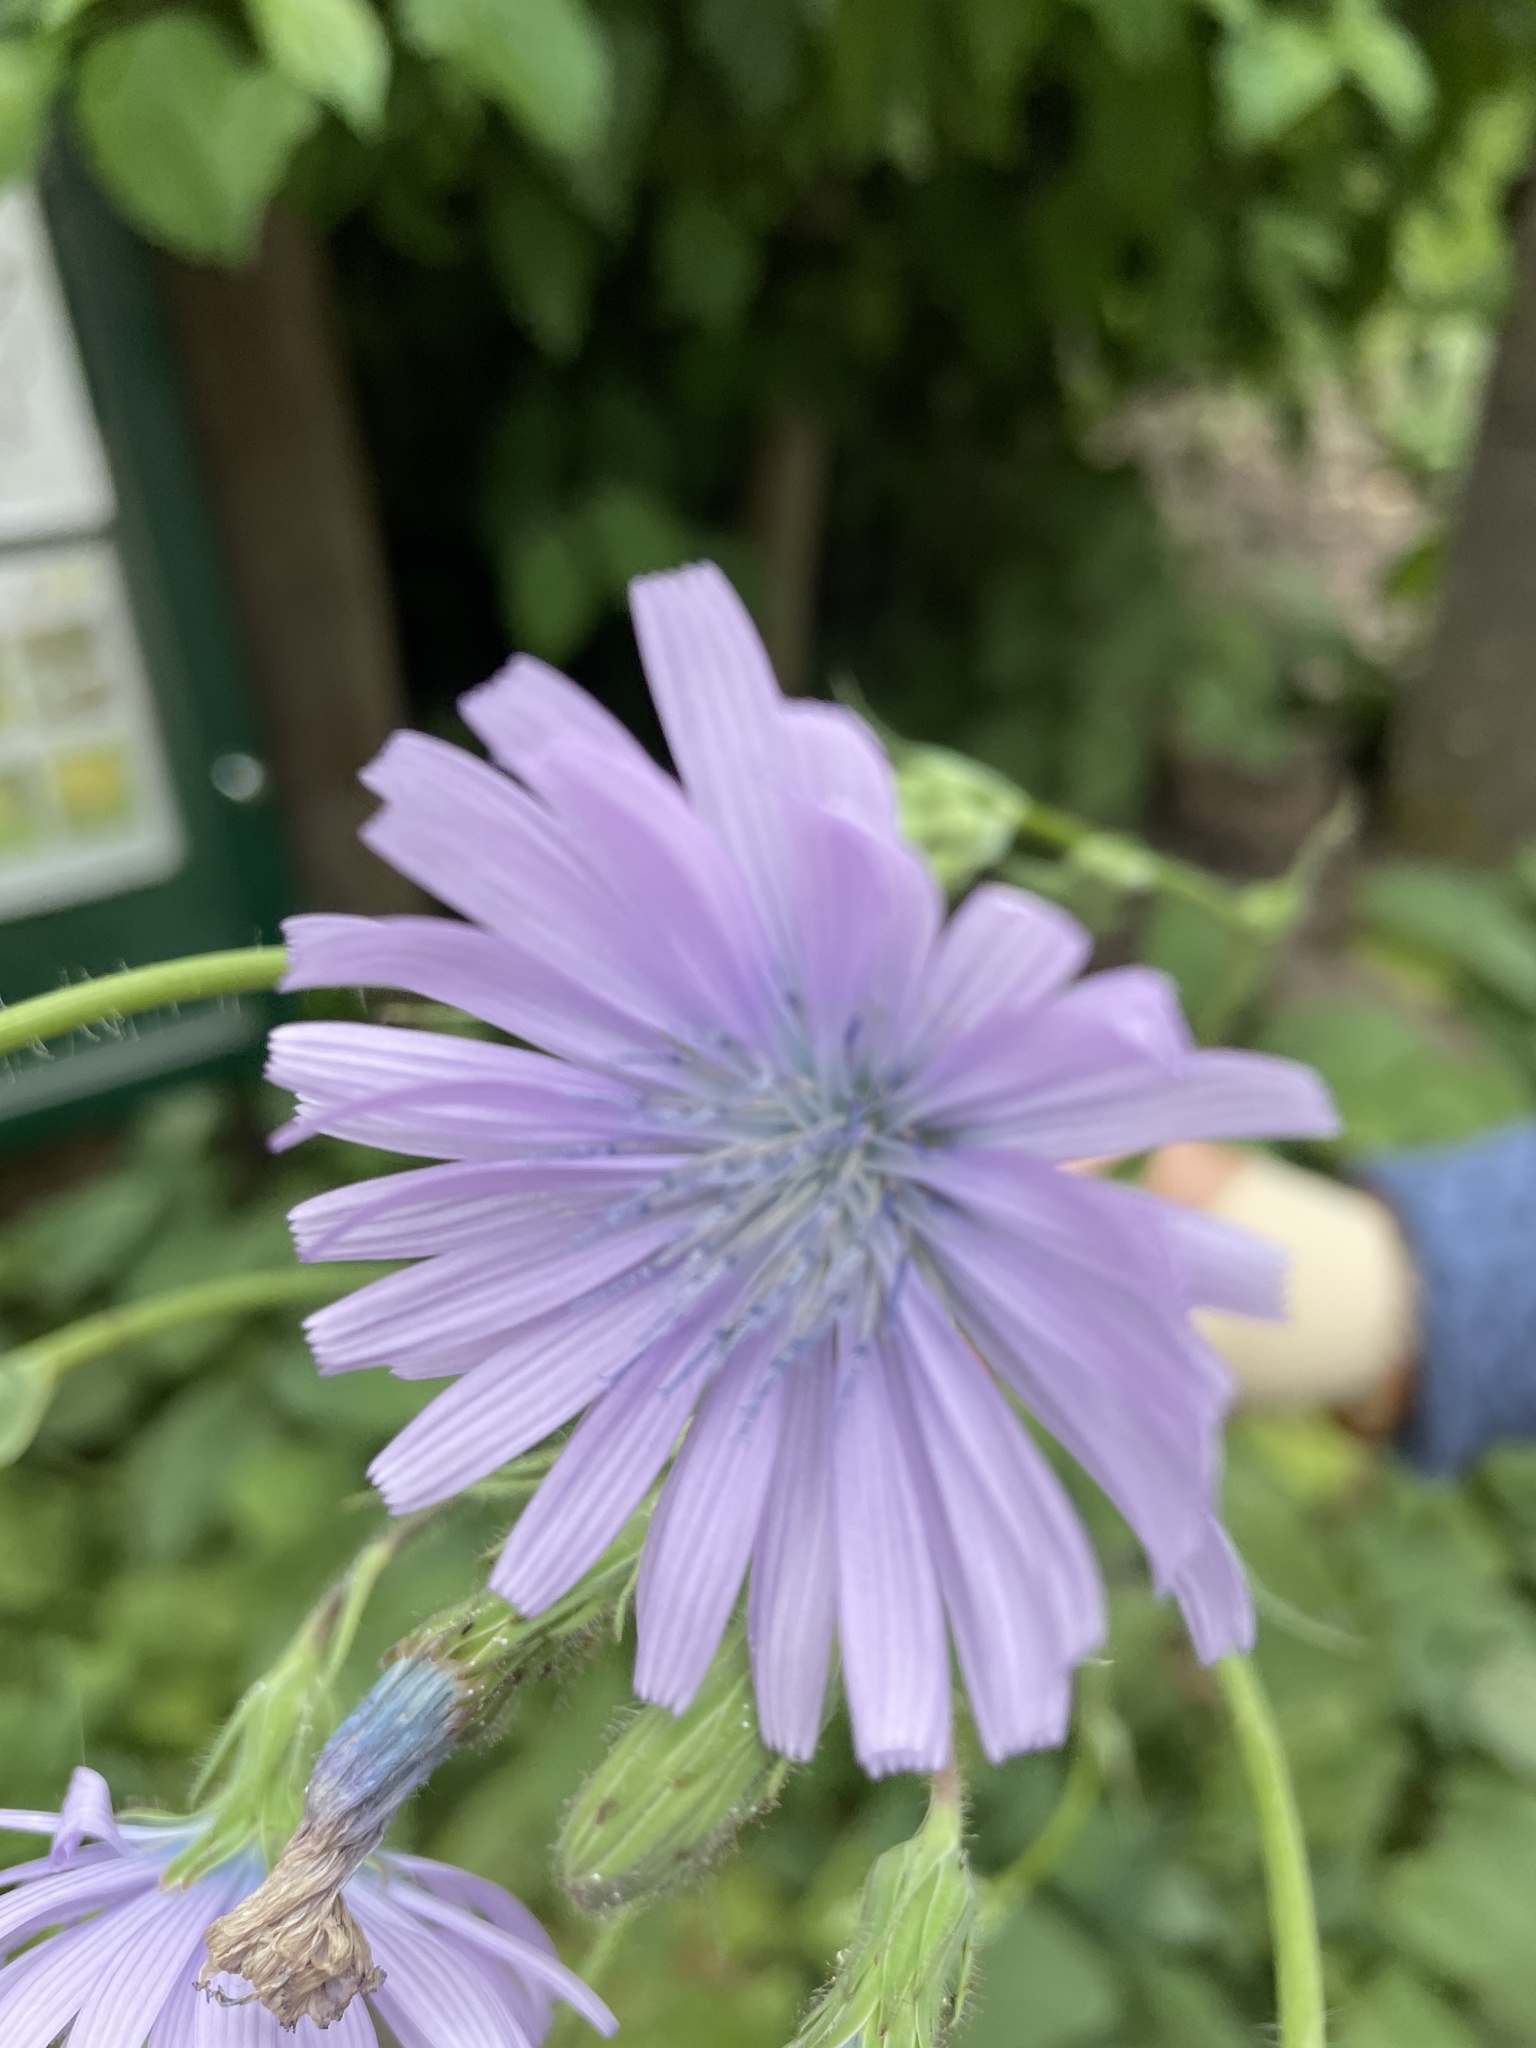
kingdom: Plantae
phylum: Tracheophyta
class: Magnoliopsida
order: Asterales
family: Asteraceae
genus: Lactuca
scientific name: Lactuca macrophylla
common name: Common blue-sow-thistle
